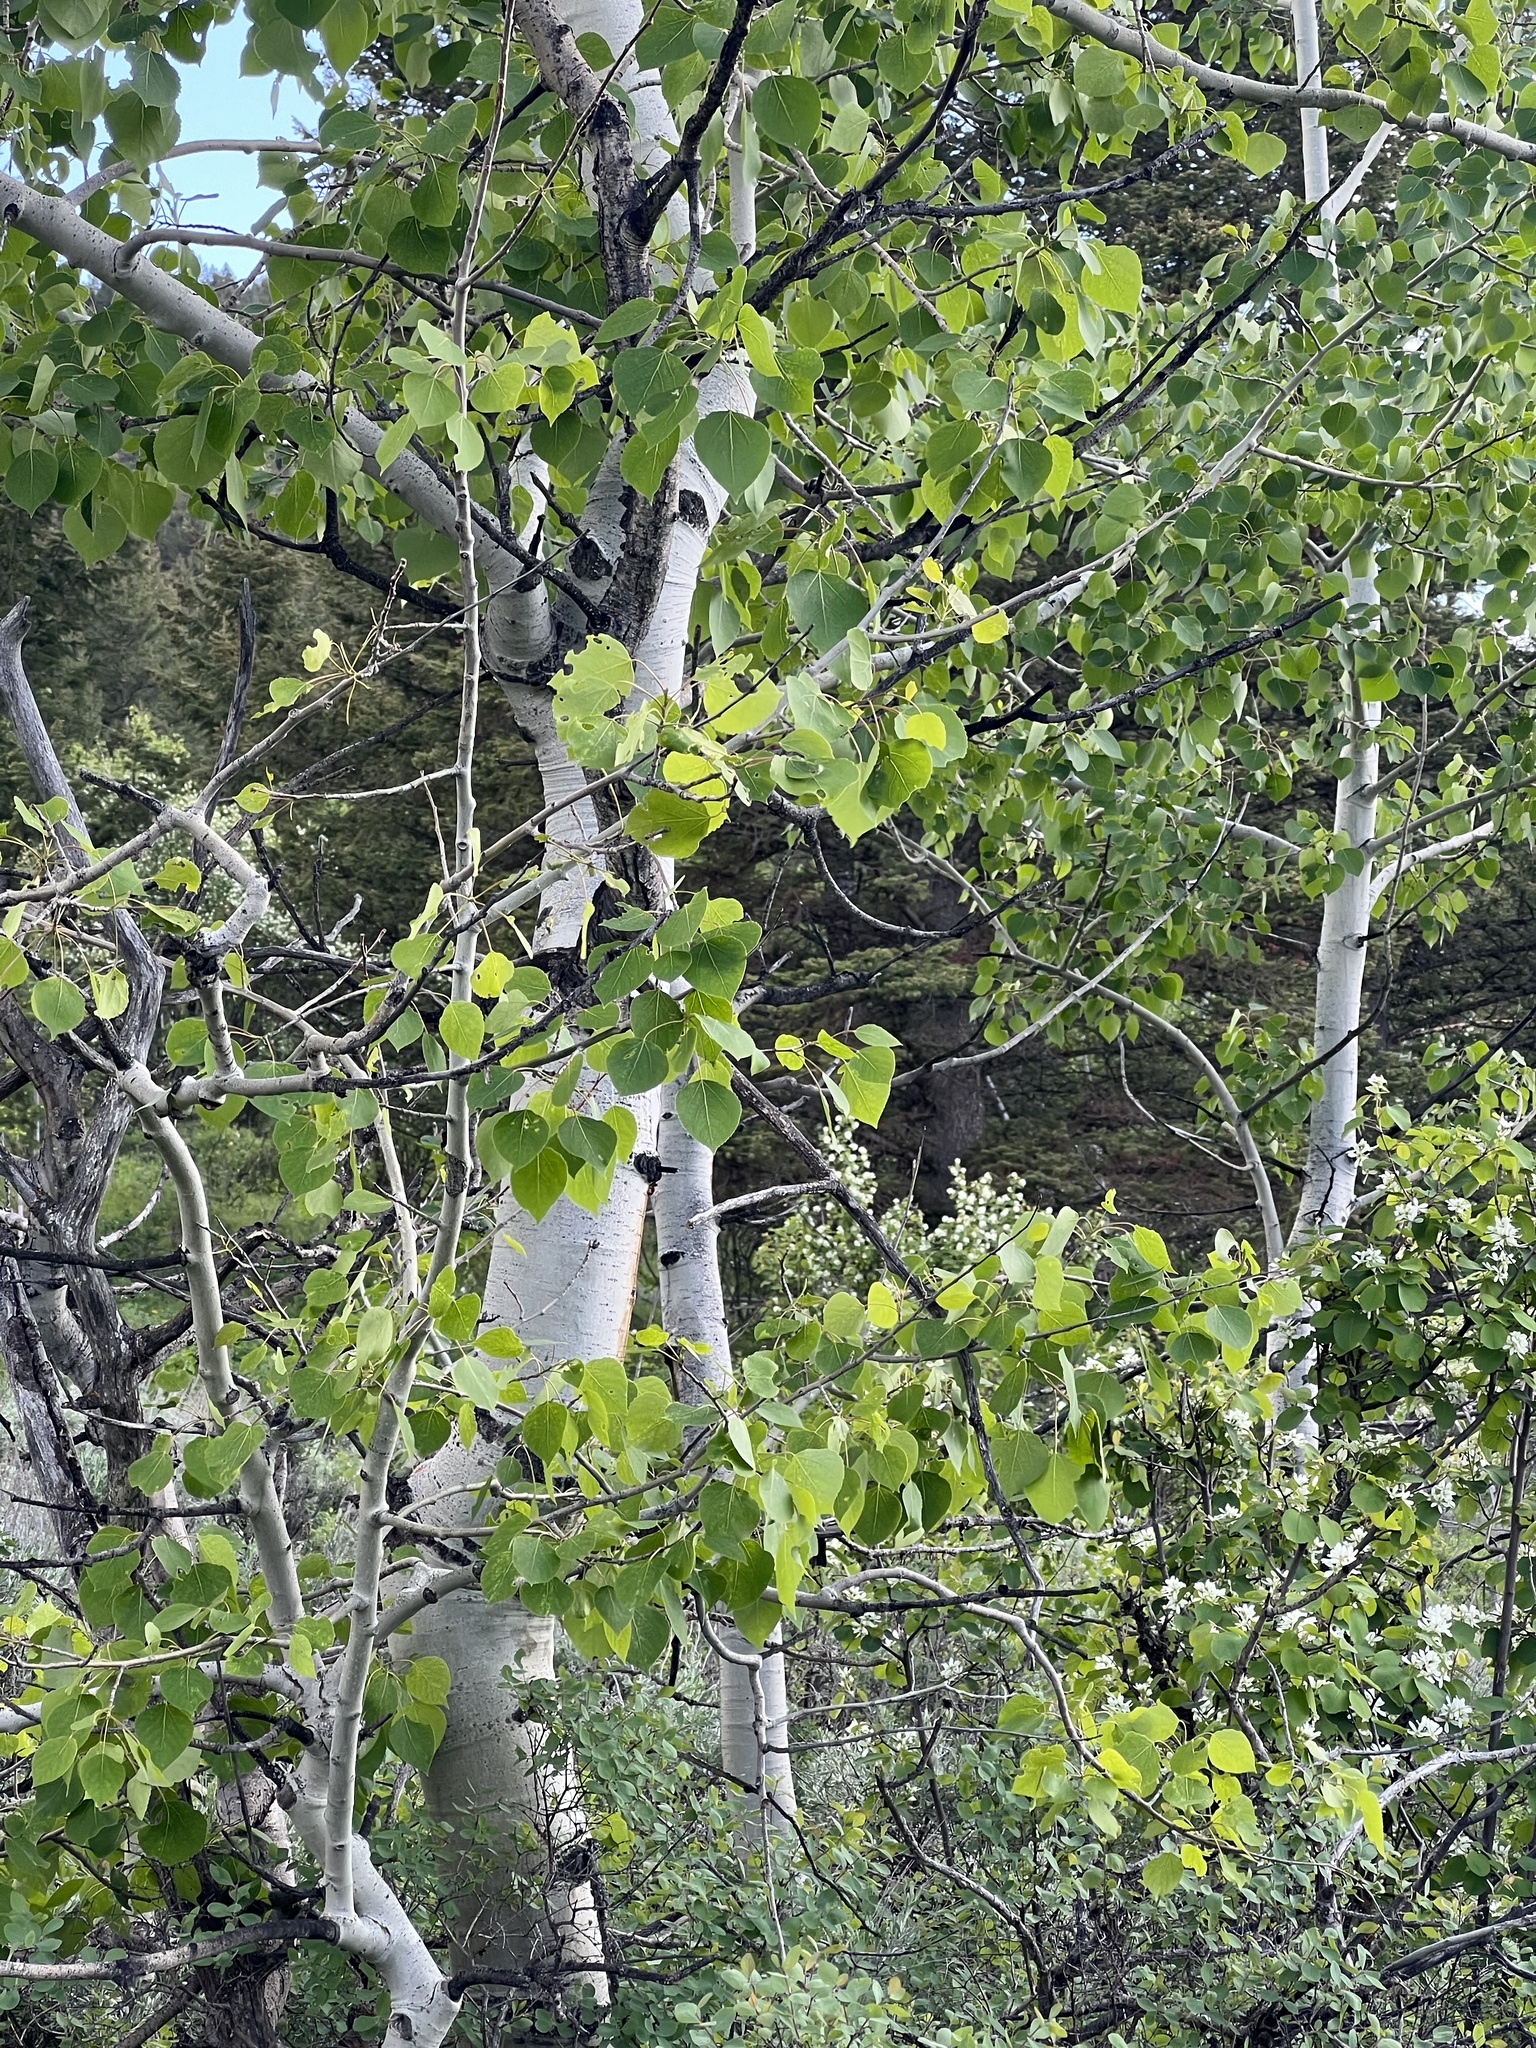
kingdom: Plantae
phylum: Tracheophyta
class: Magnoliopsida
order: Malpighiales
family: Salicaceae
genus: Populus
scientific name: Populus tremuloides
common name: Quaking aspen
